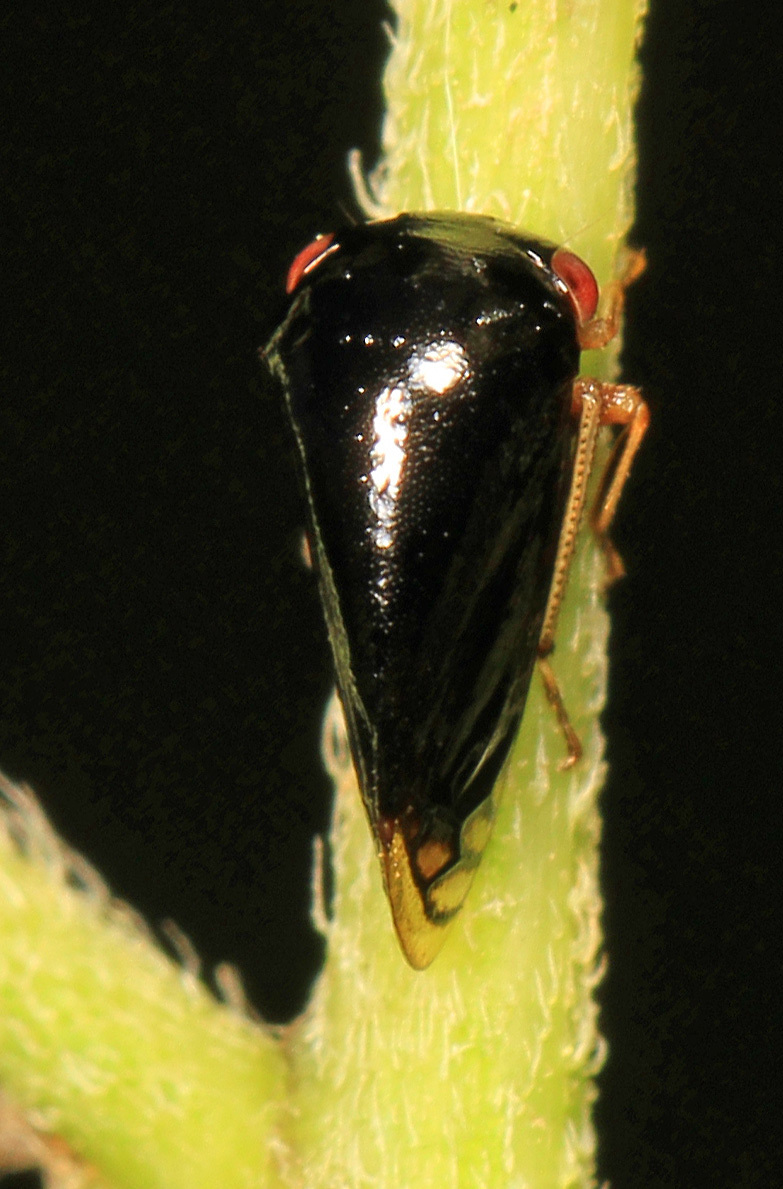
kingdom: Animalia
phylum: Arthropoda
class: Insecta
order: Hemiptera
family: Membracidae
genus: Acutalis
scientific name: Acutalis tartarea
